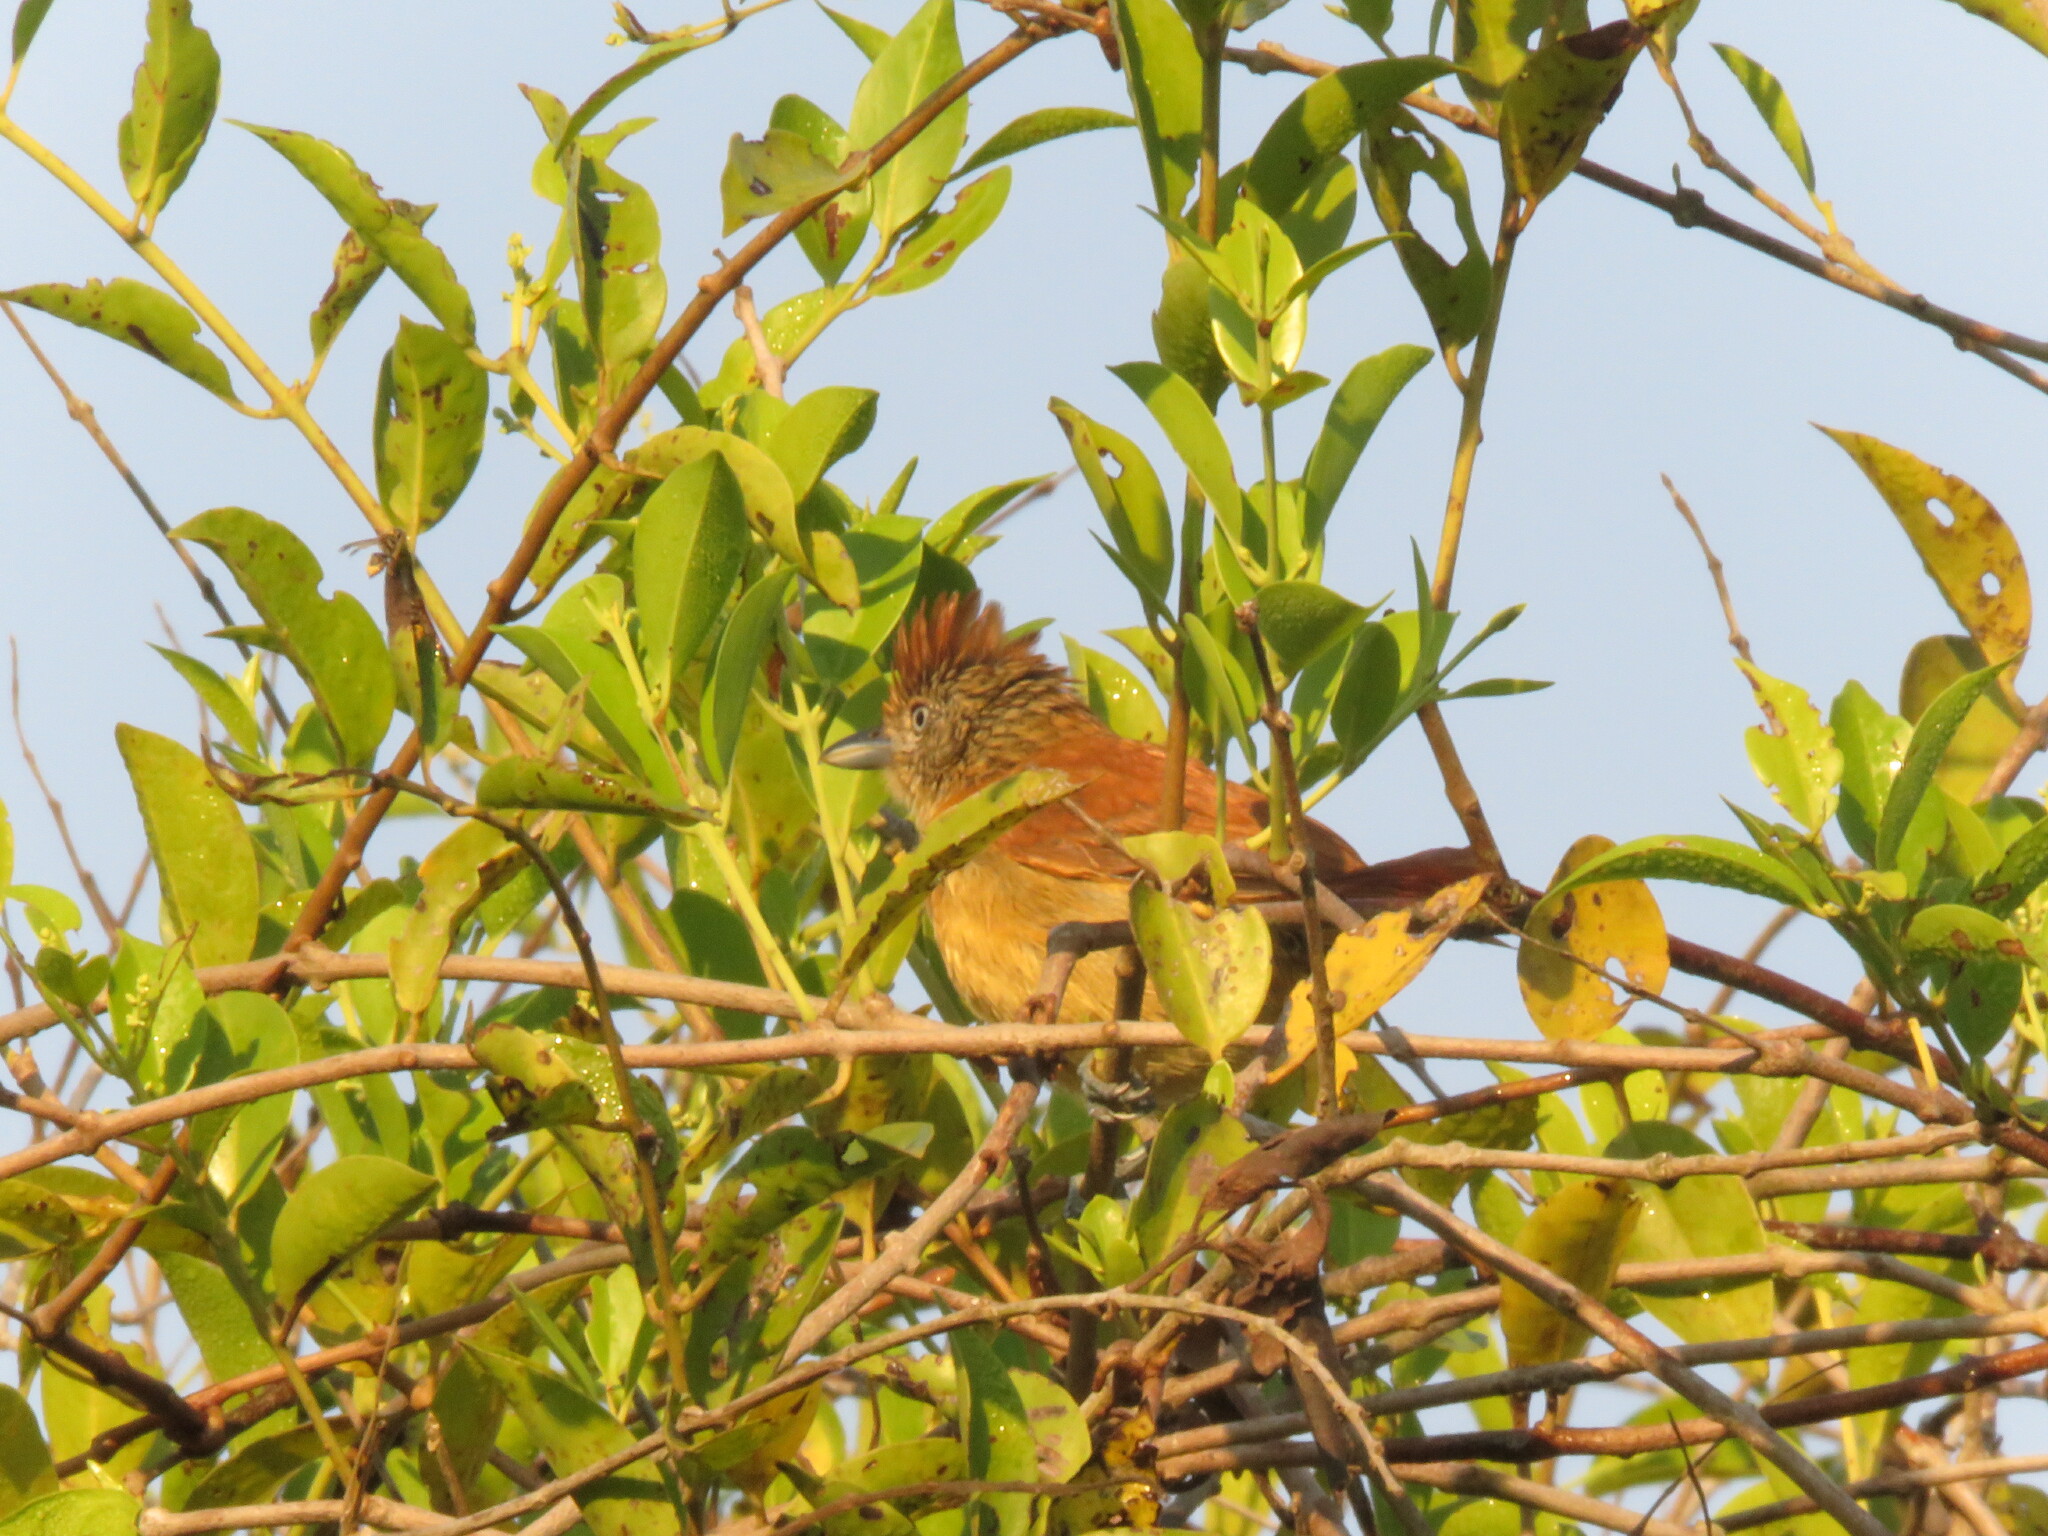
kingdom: Animalia
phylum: Chordata
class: Aves
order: Passeriformes
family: Thamnophilidae
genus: Thamnophilus
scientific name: Thamnophilus doliatus
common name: Barred antshrike
